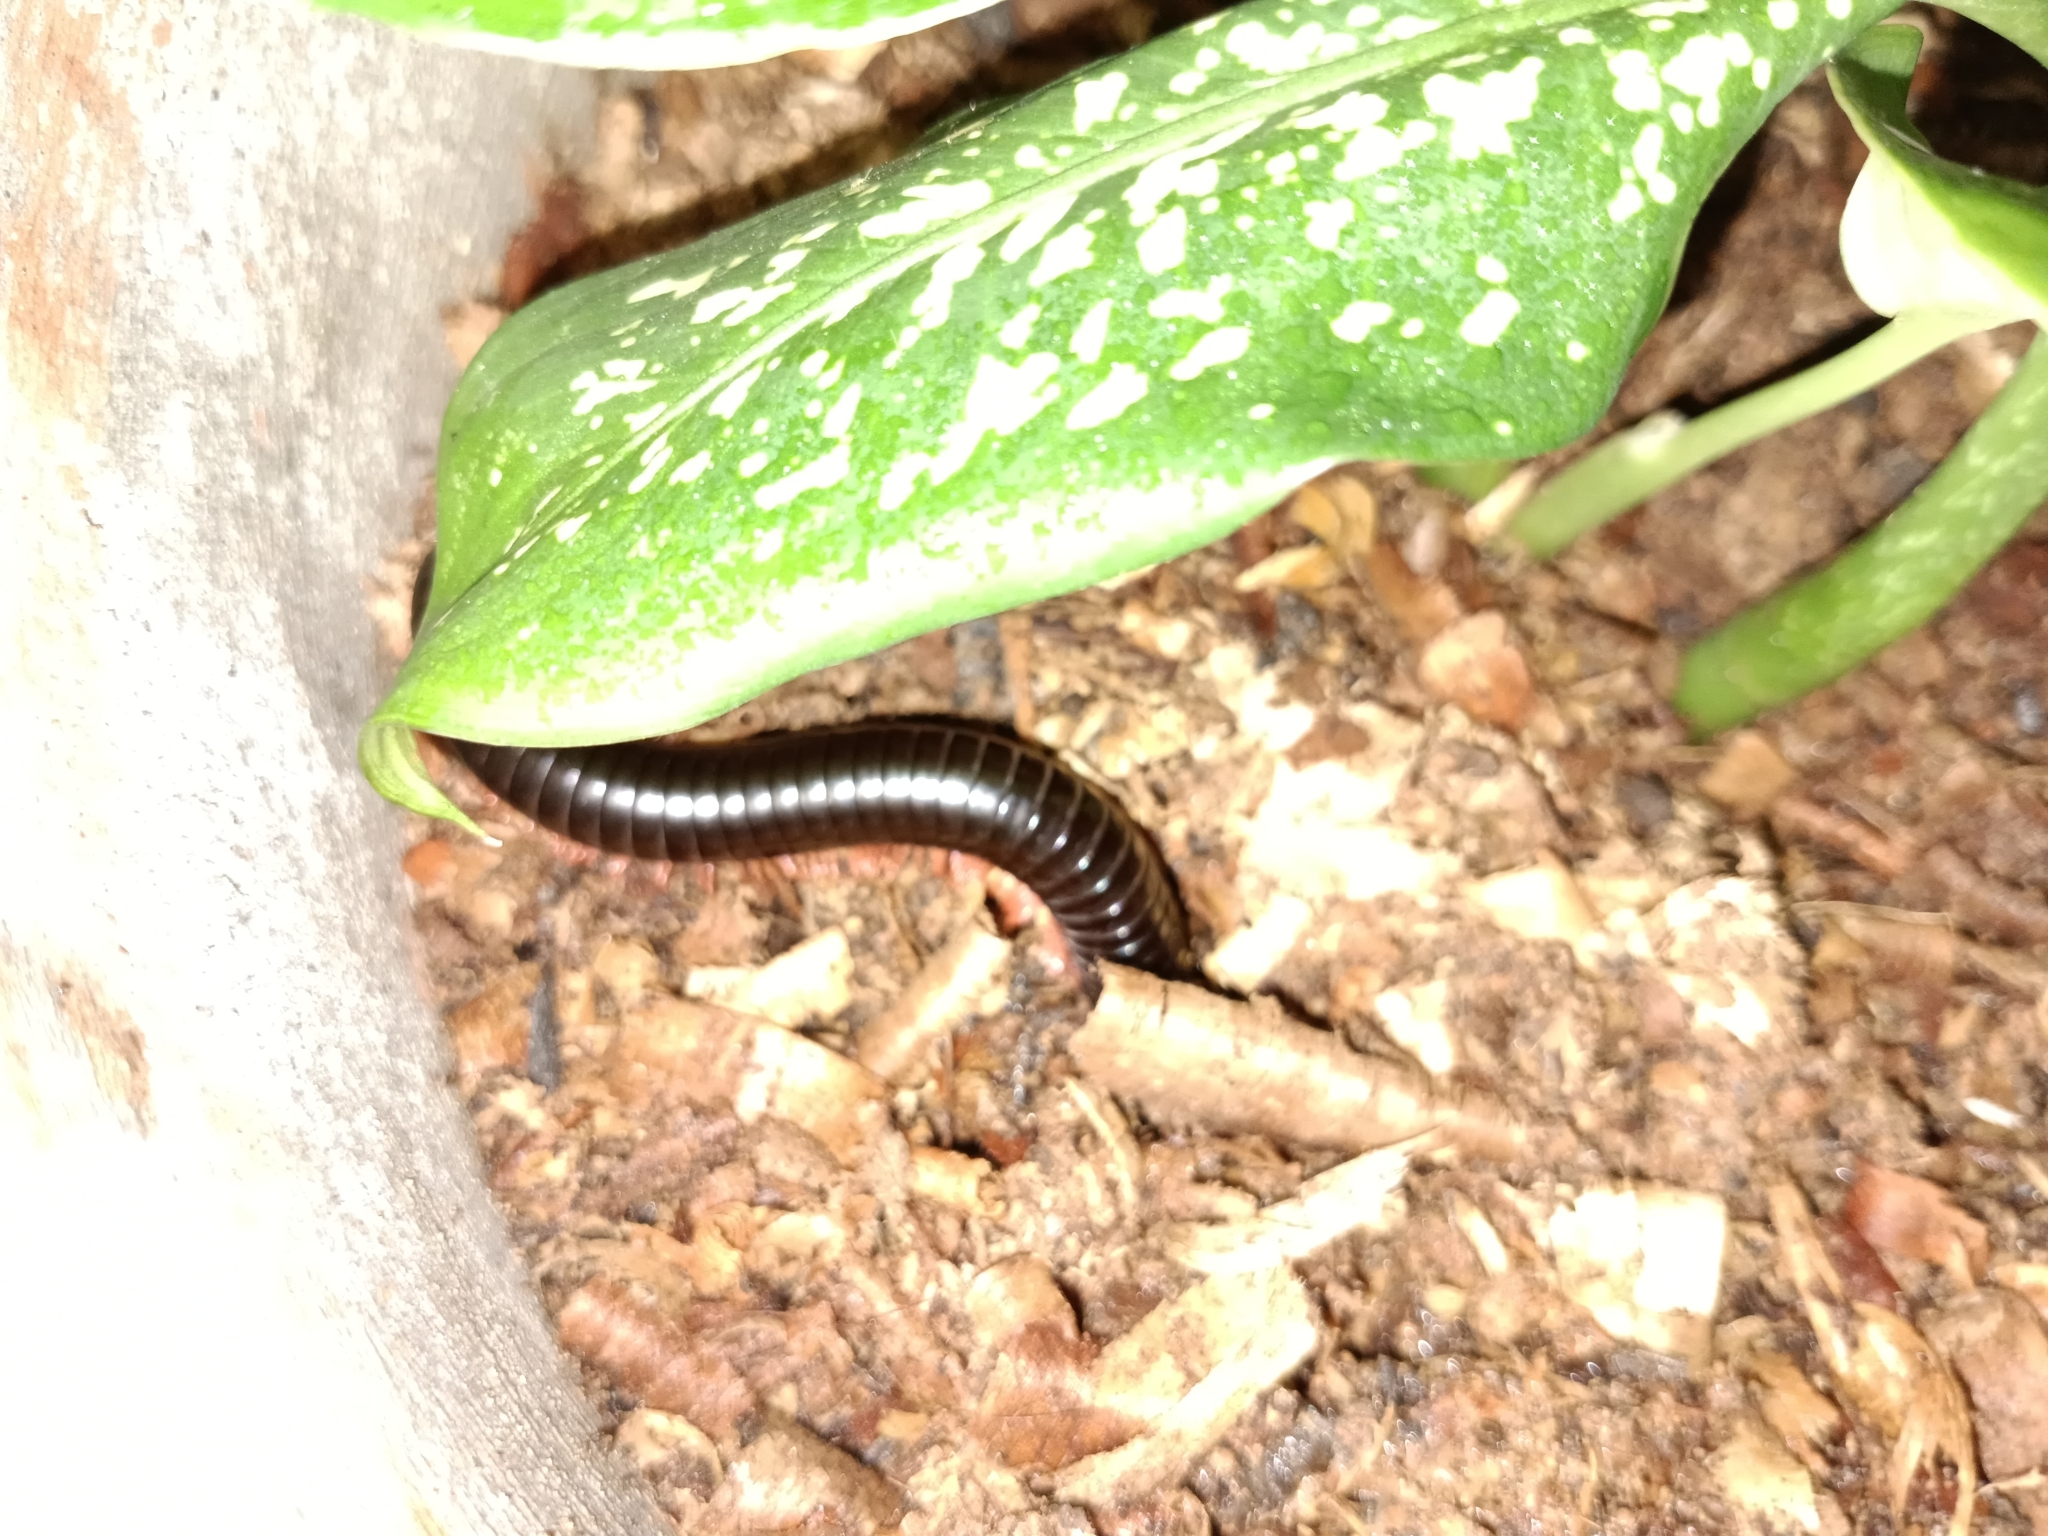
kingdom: Animalia
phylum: Arthropoda
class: Diplopoda
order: Spirostreptida
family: Harpagophoridae
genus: Phyllogonostreptus
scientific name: Phyllogonostreptus nigrolabiatus
